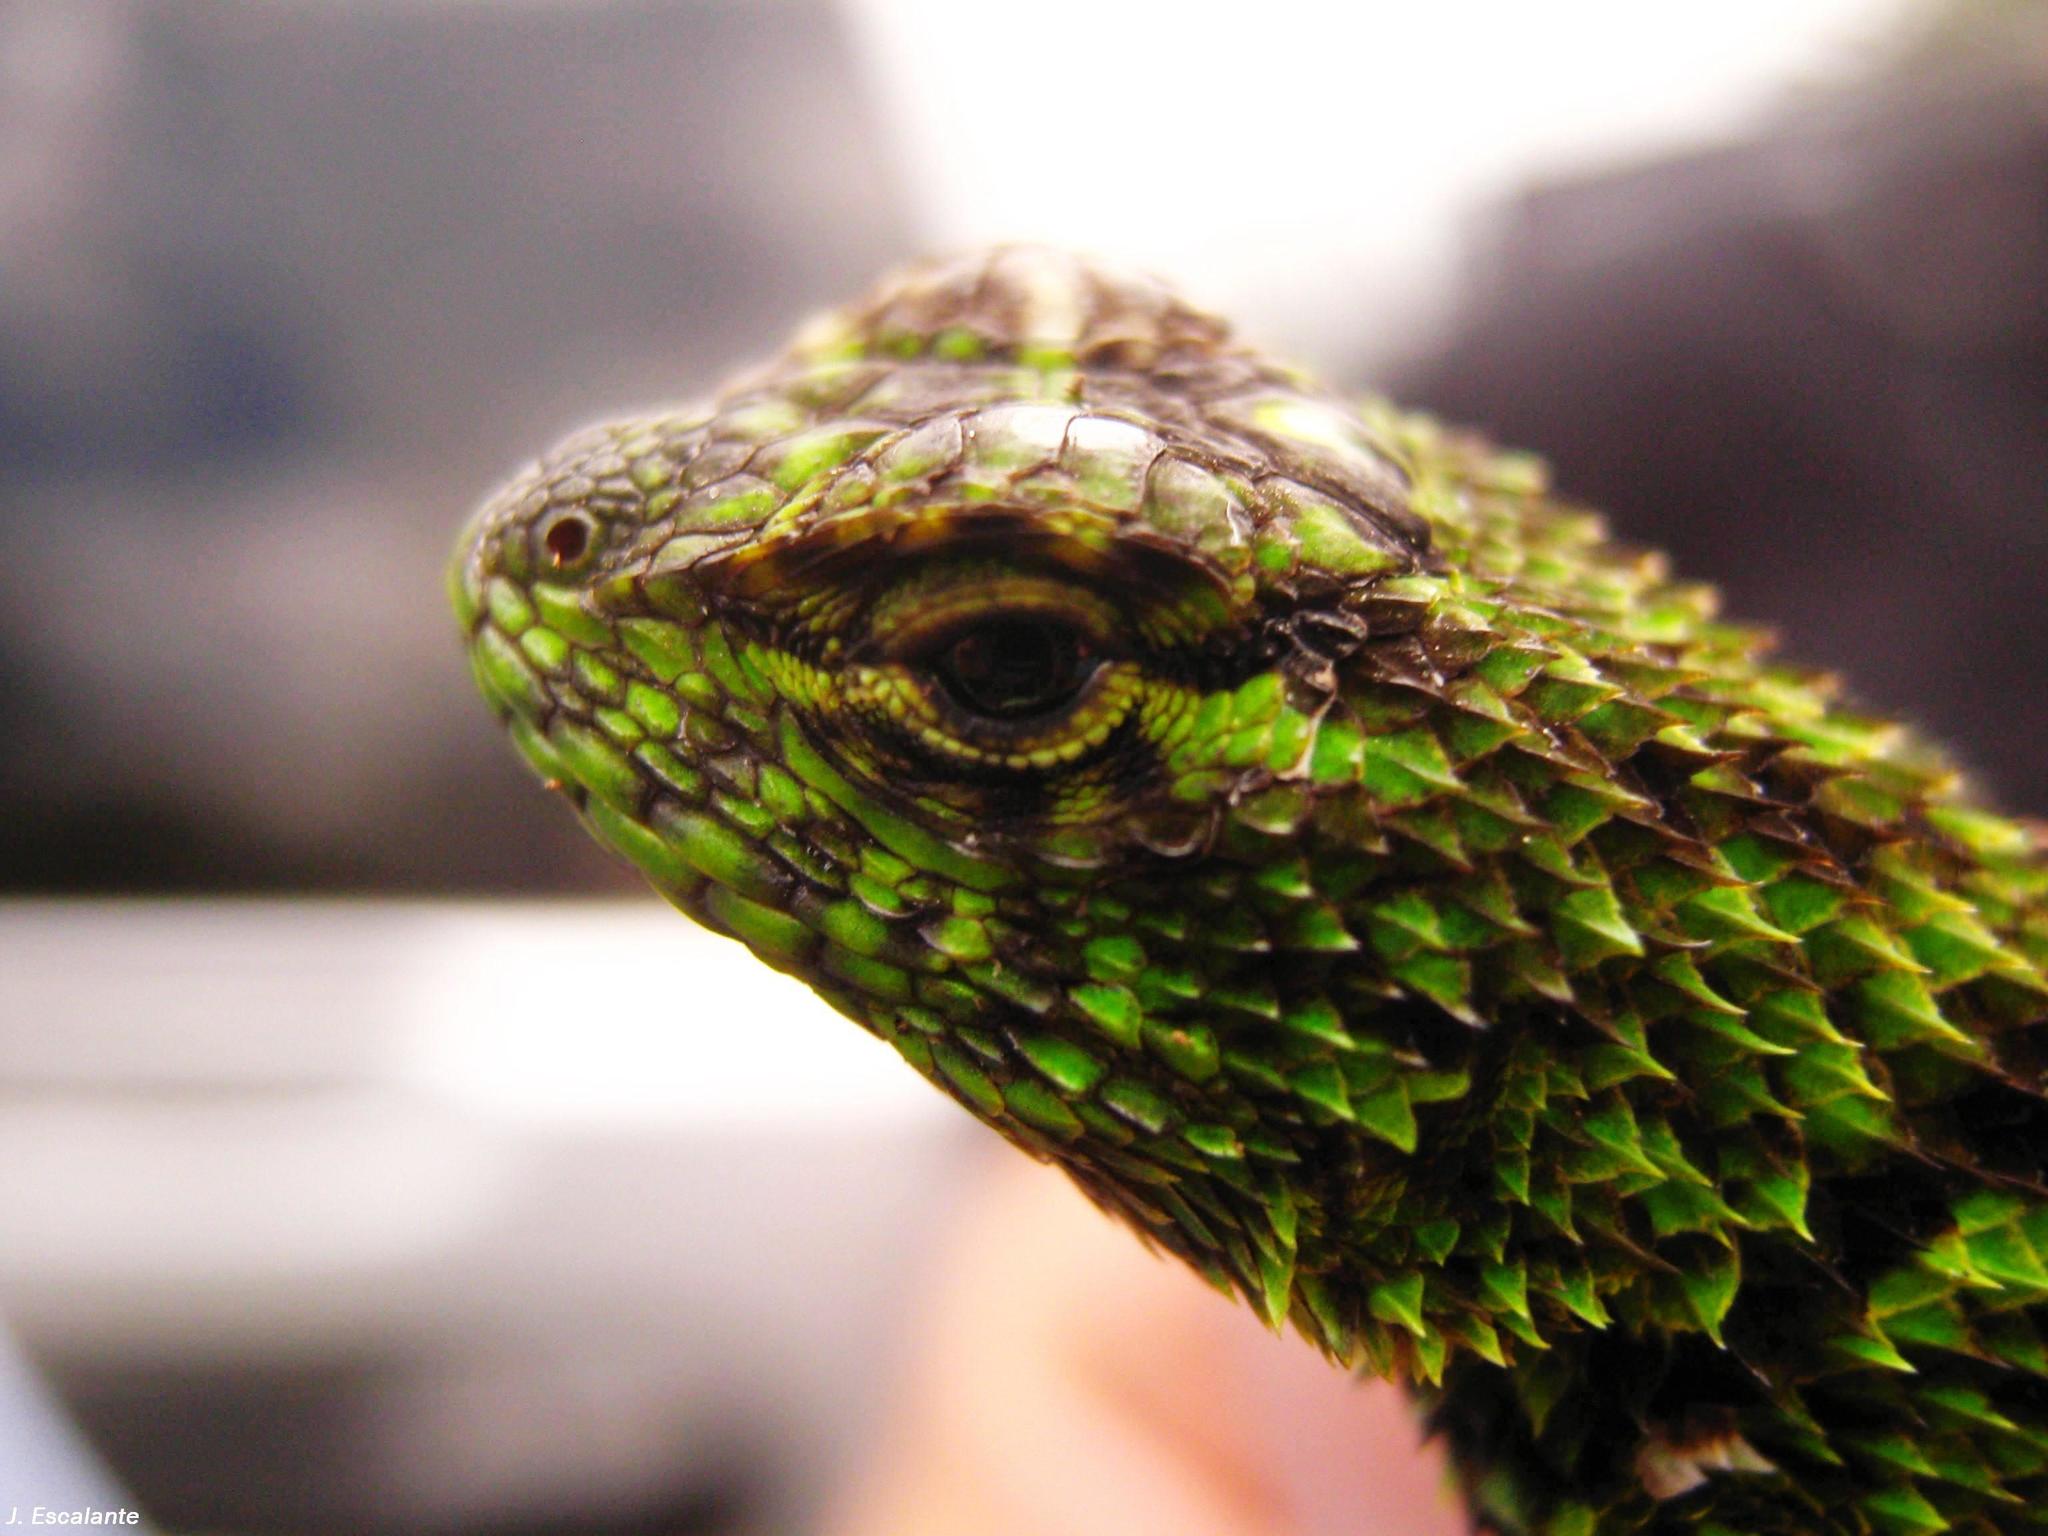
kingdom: Animalia
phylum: Chordata
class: Squamata
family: Phrynosomatidae
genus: Sceloporus
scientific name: Sceloporus internasalis
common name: Mail-snouted spiny lizard
